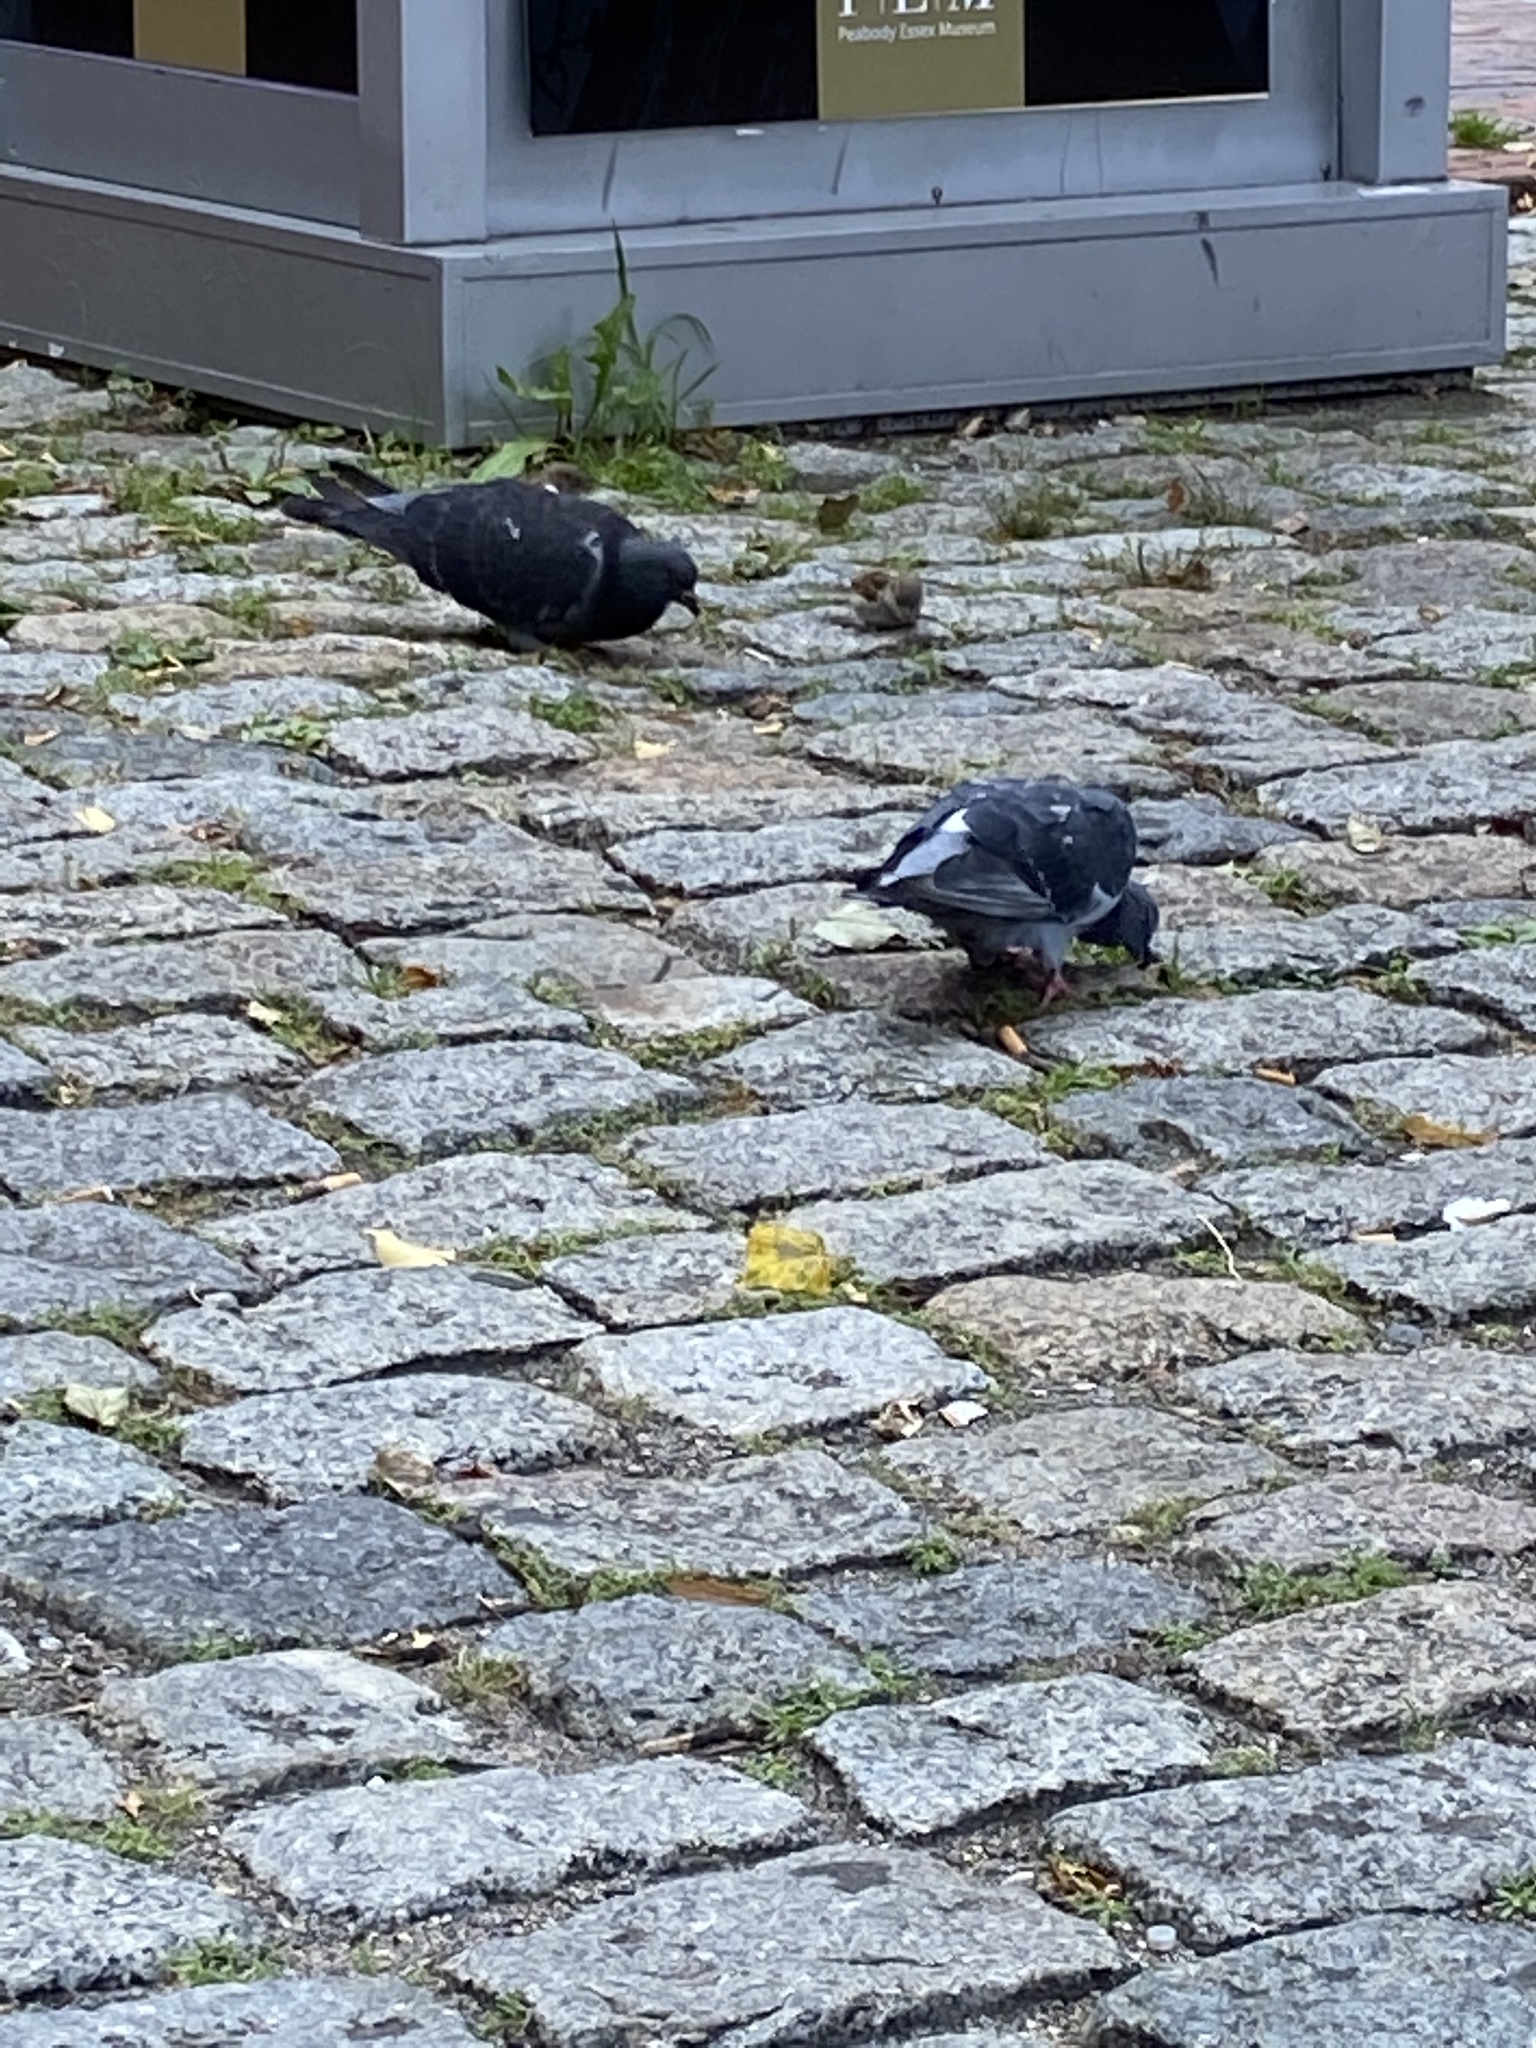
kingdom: Animalia
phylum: Chordata
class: Aves
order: Columbiformes
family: Columbidae
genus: Columba
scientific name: Columba livia
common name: Rock pigeon
